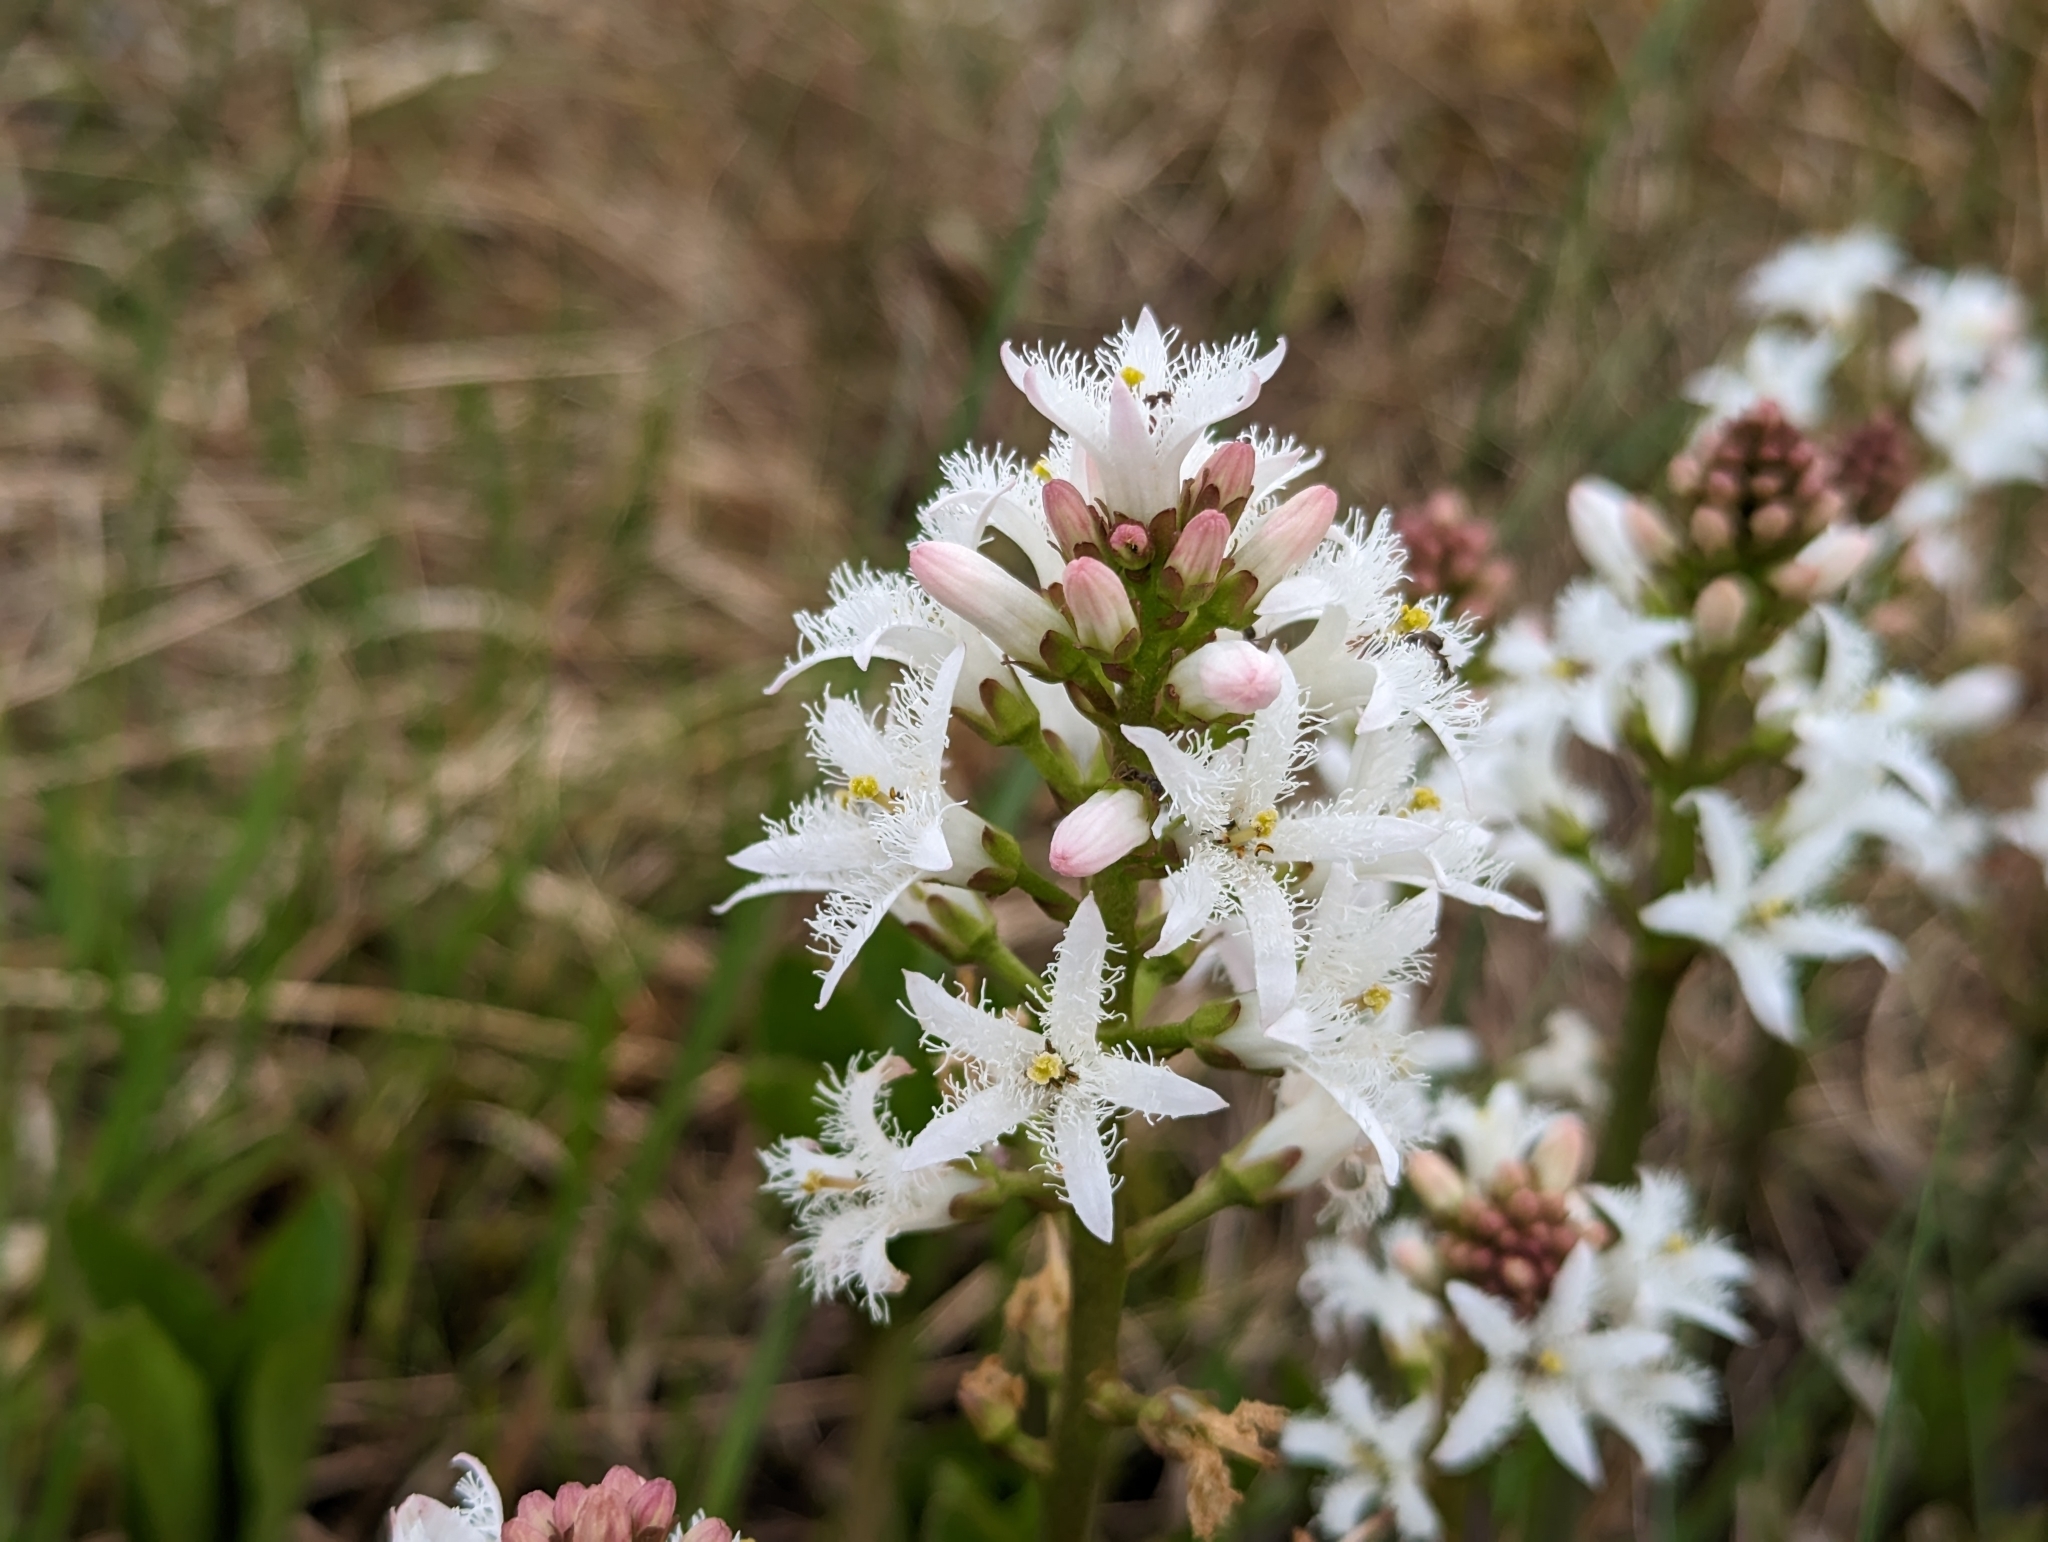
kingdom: Plantae
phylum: Tracheophyta
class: Magnoliopsida
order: Asterales
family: Menyanthaceae
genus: Menyanthes
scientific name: Menyanthes trifoliata
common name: Bogbean
